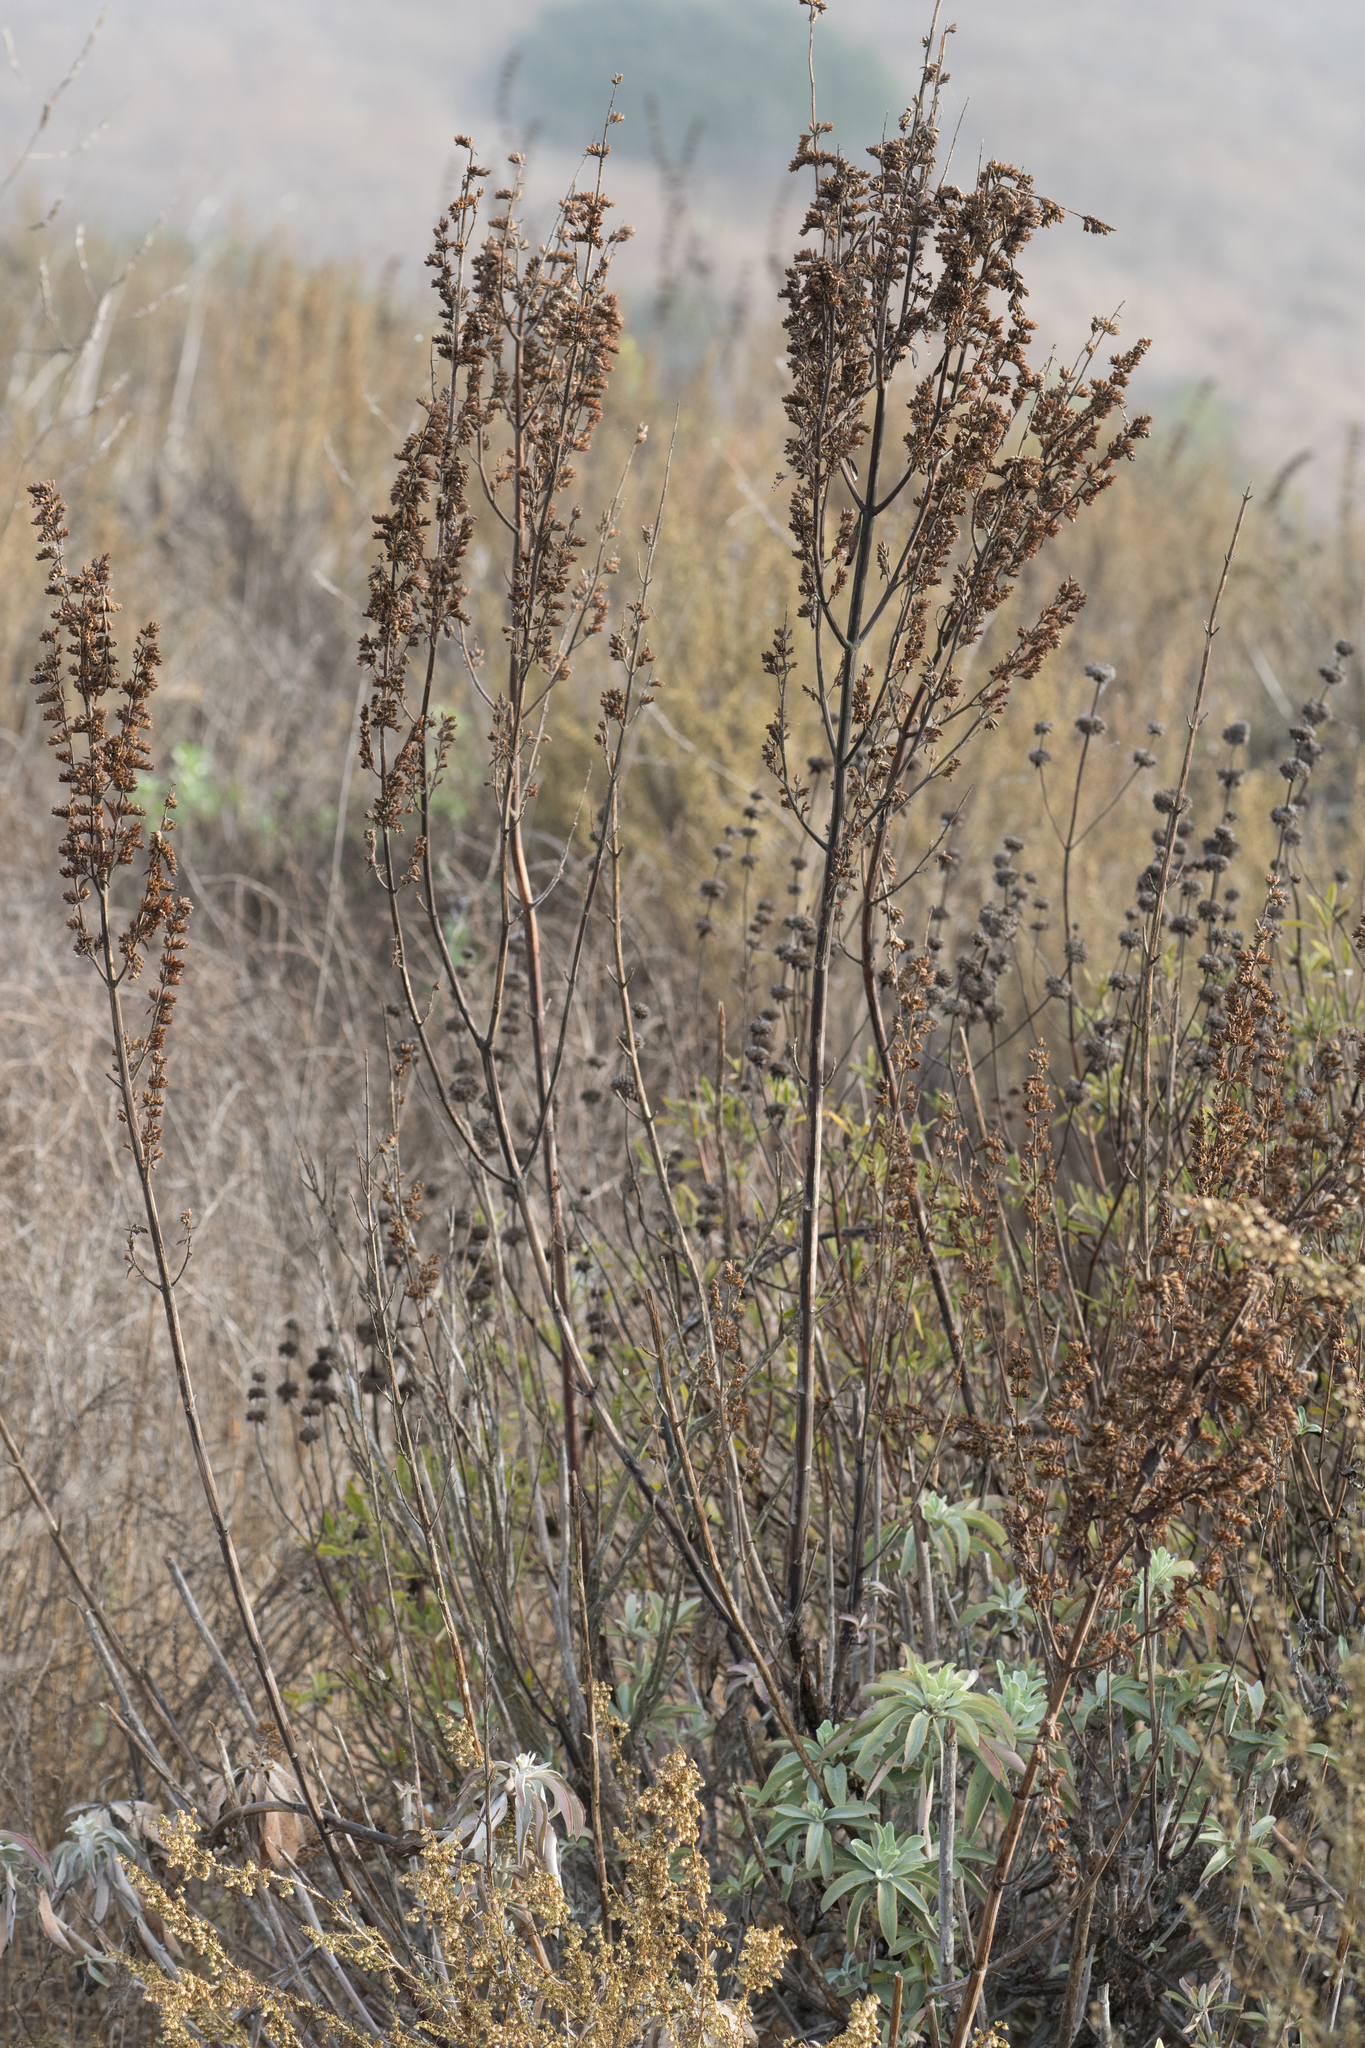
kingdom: Plantae
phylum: Tracheophyta
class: Magnoliopsida
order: Lamiales
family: Lamiaceae
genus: Salvia
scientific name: Salvia apiana
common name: White sage
